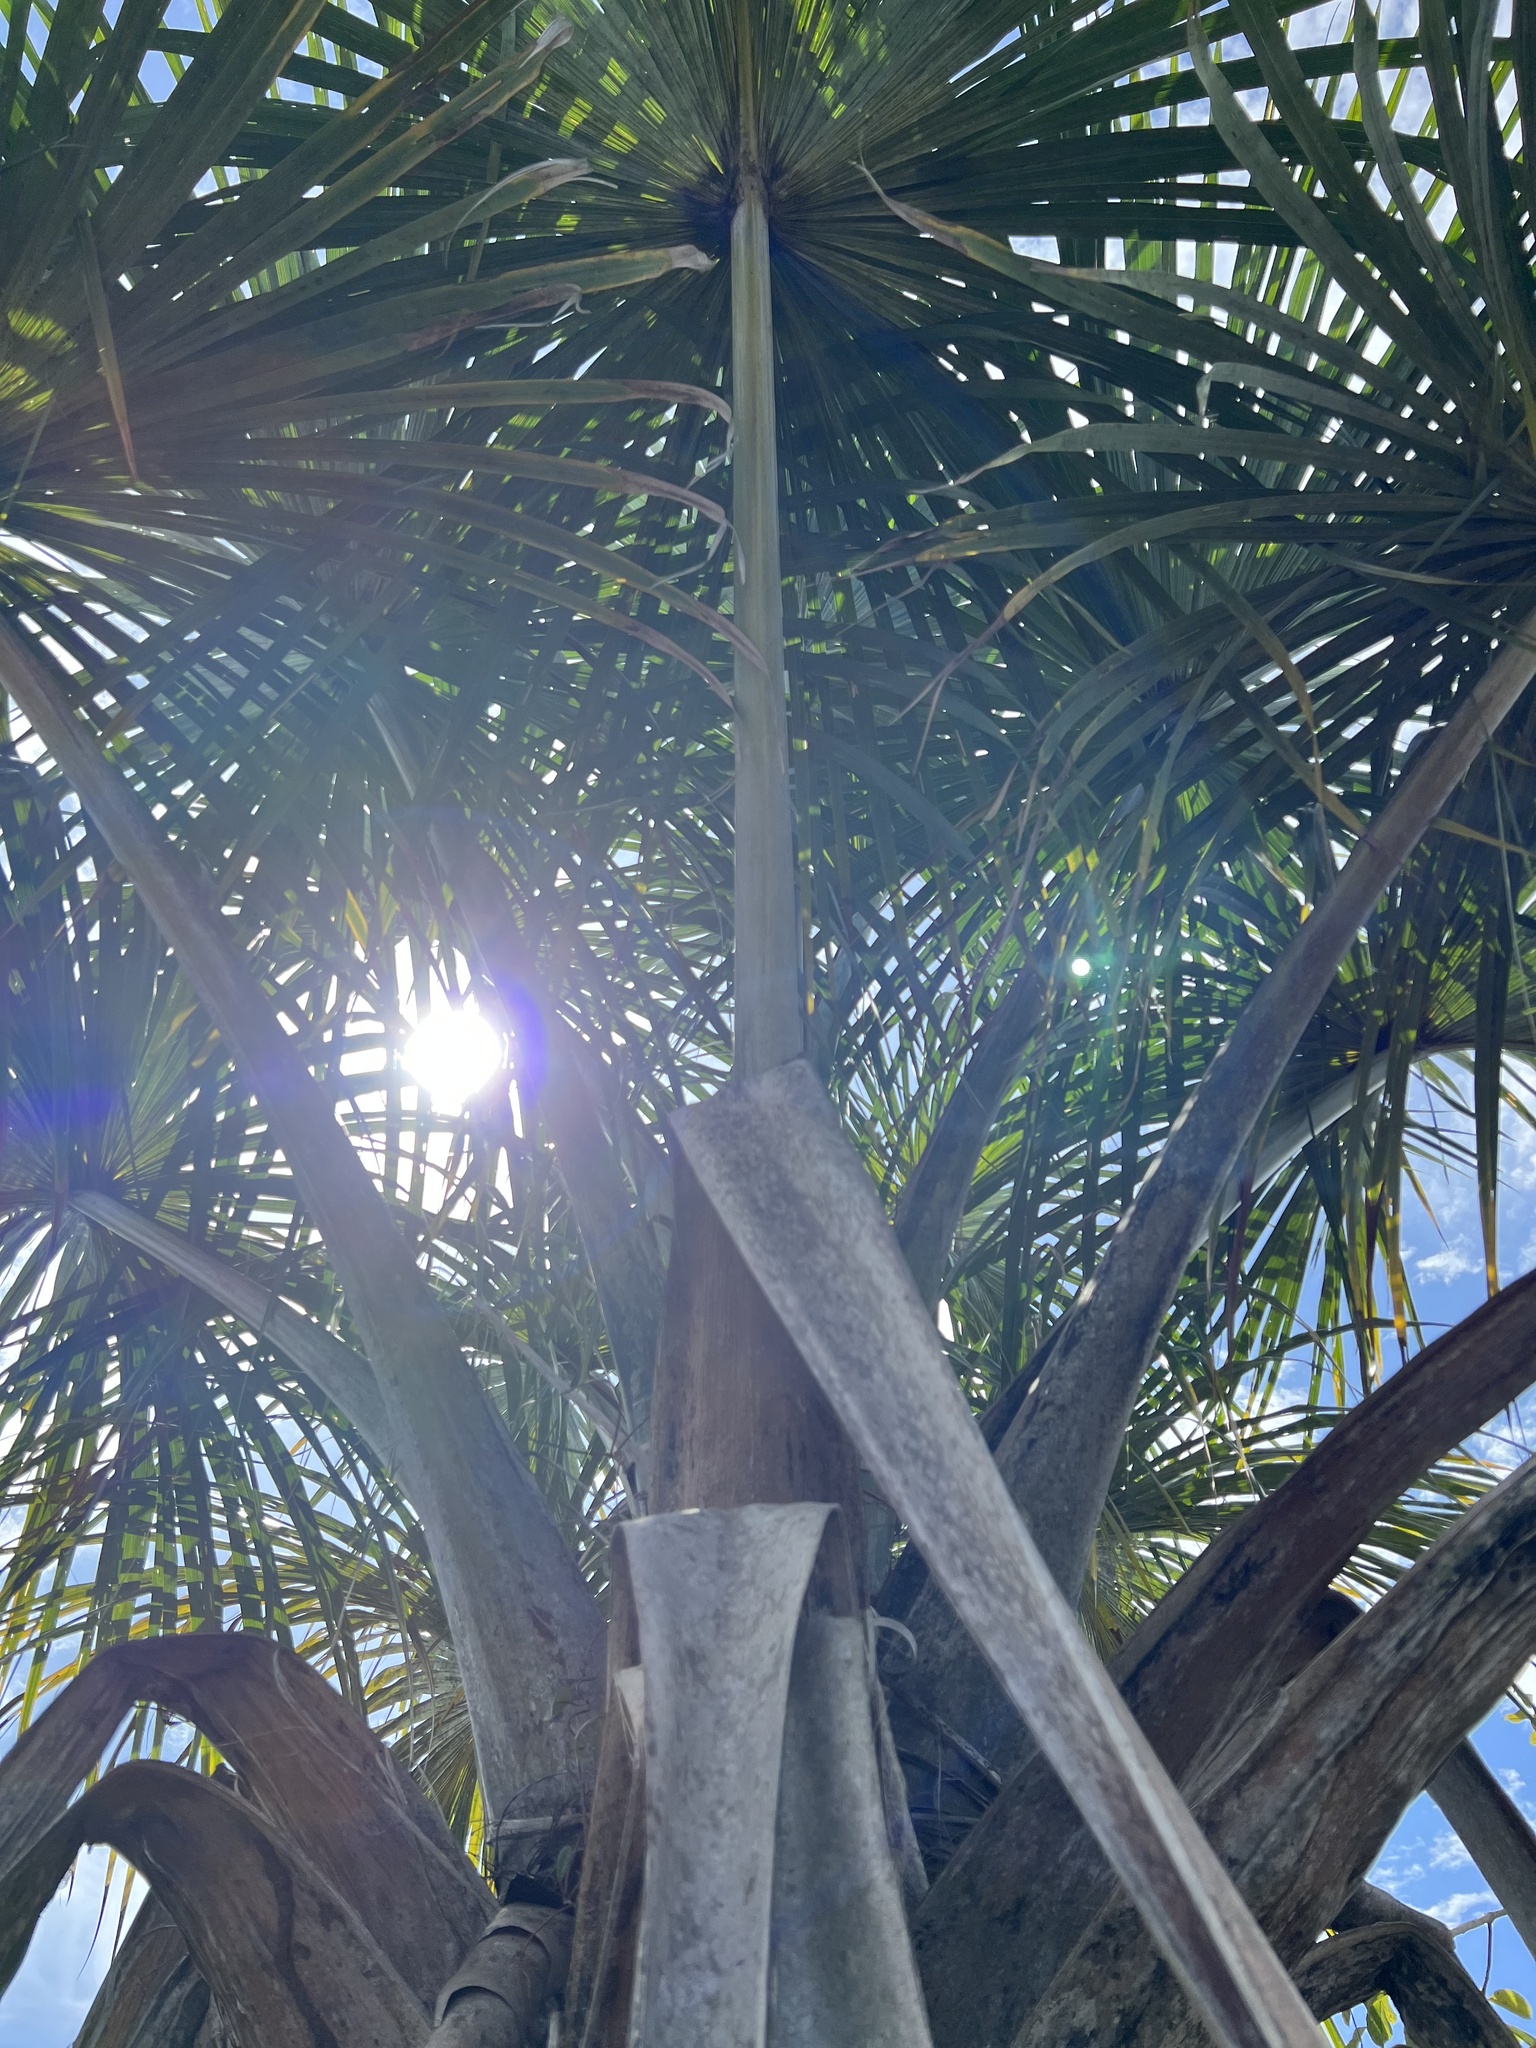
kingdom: Plantae
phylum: Tracheophyta
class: Liliopsida
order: Arecales
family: Arecaceae
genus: Mauritia
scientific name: Mauritia flexuosa
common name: Tree-of-life
